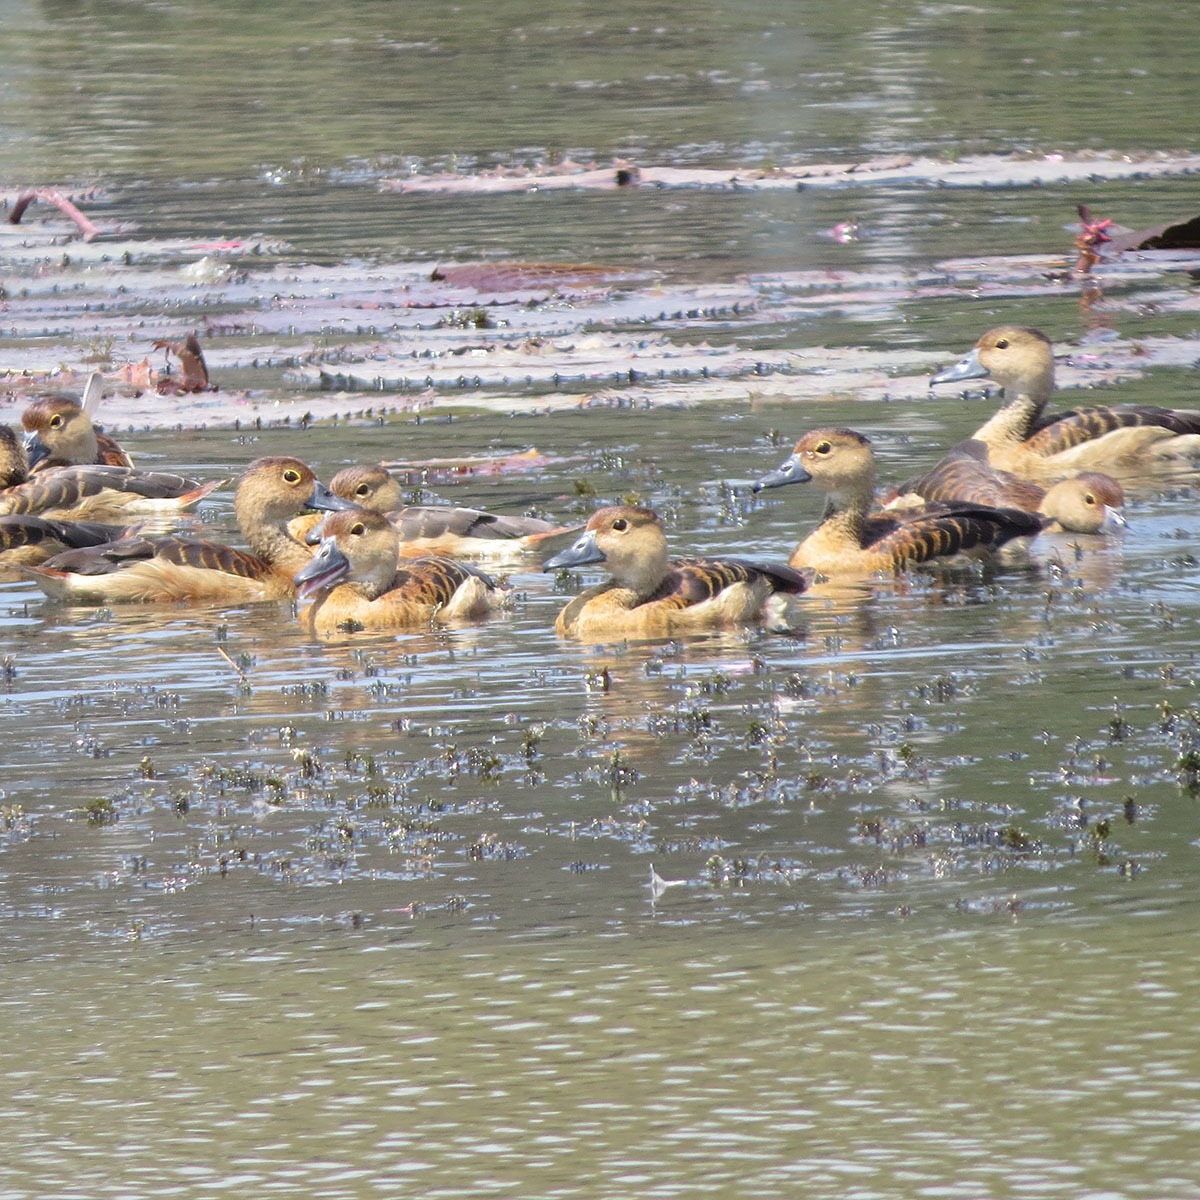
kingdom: Animalia
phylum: Chordata
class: Aves
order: Anseriformes
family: Anatidae
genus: Dendrocygna
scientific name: Dendrocygna javanica
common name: Lesser whistling-duck
